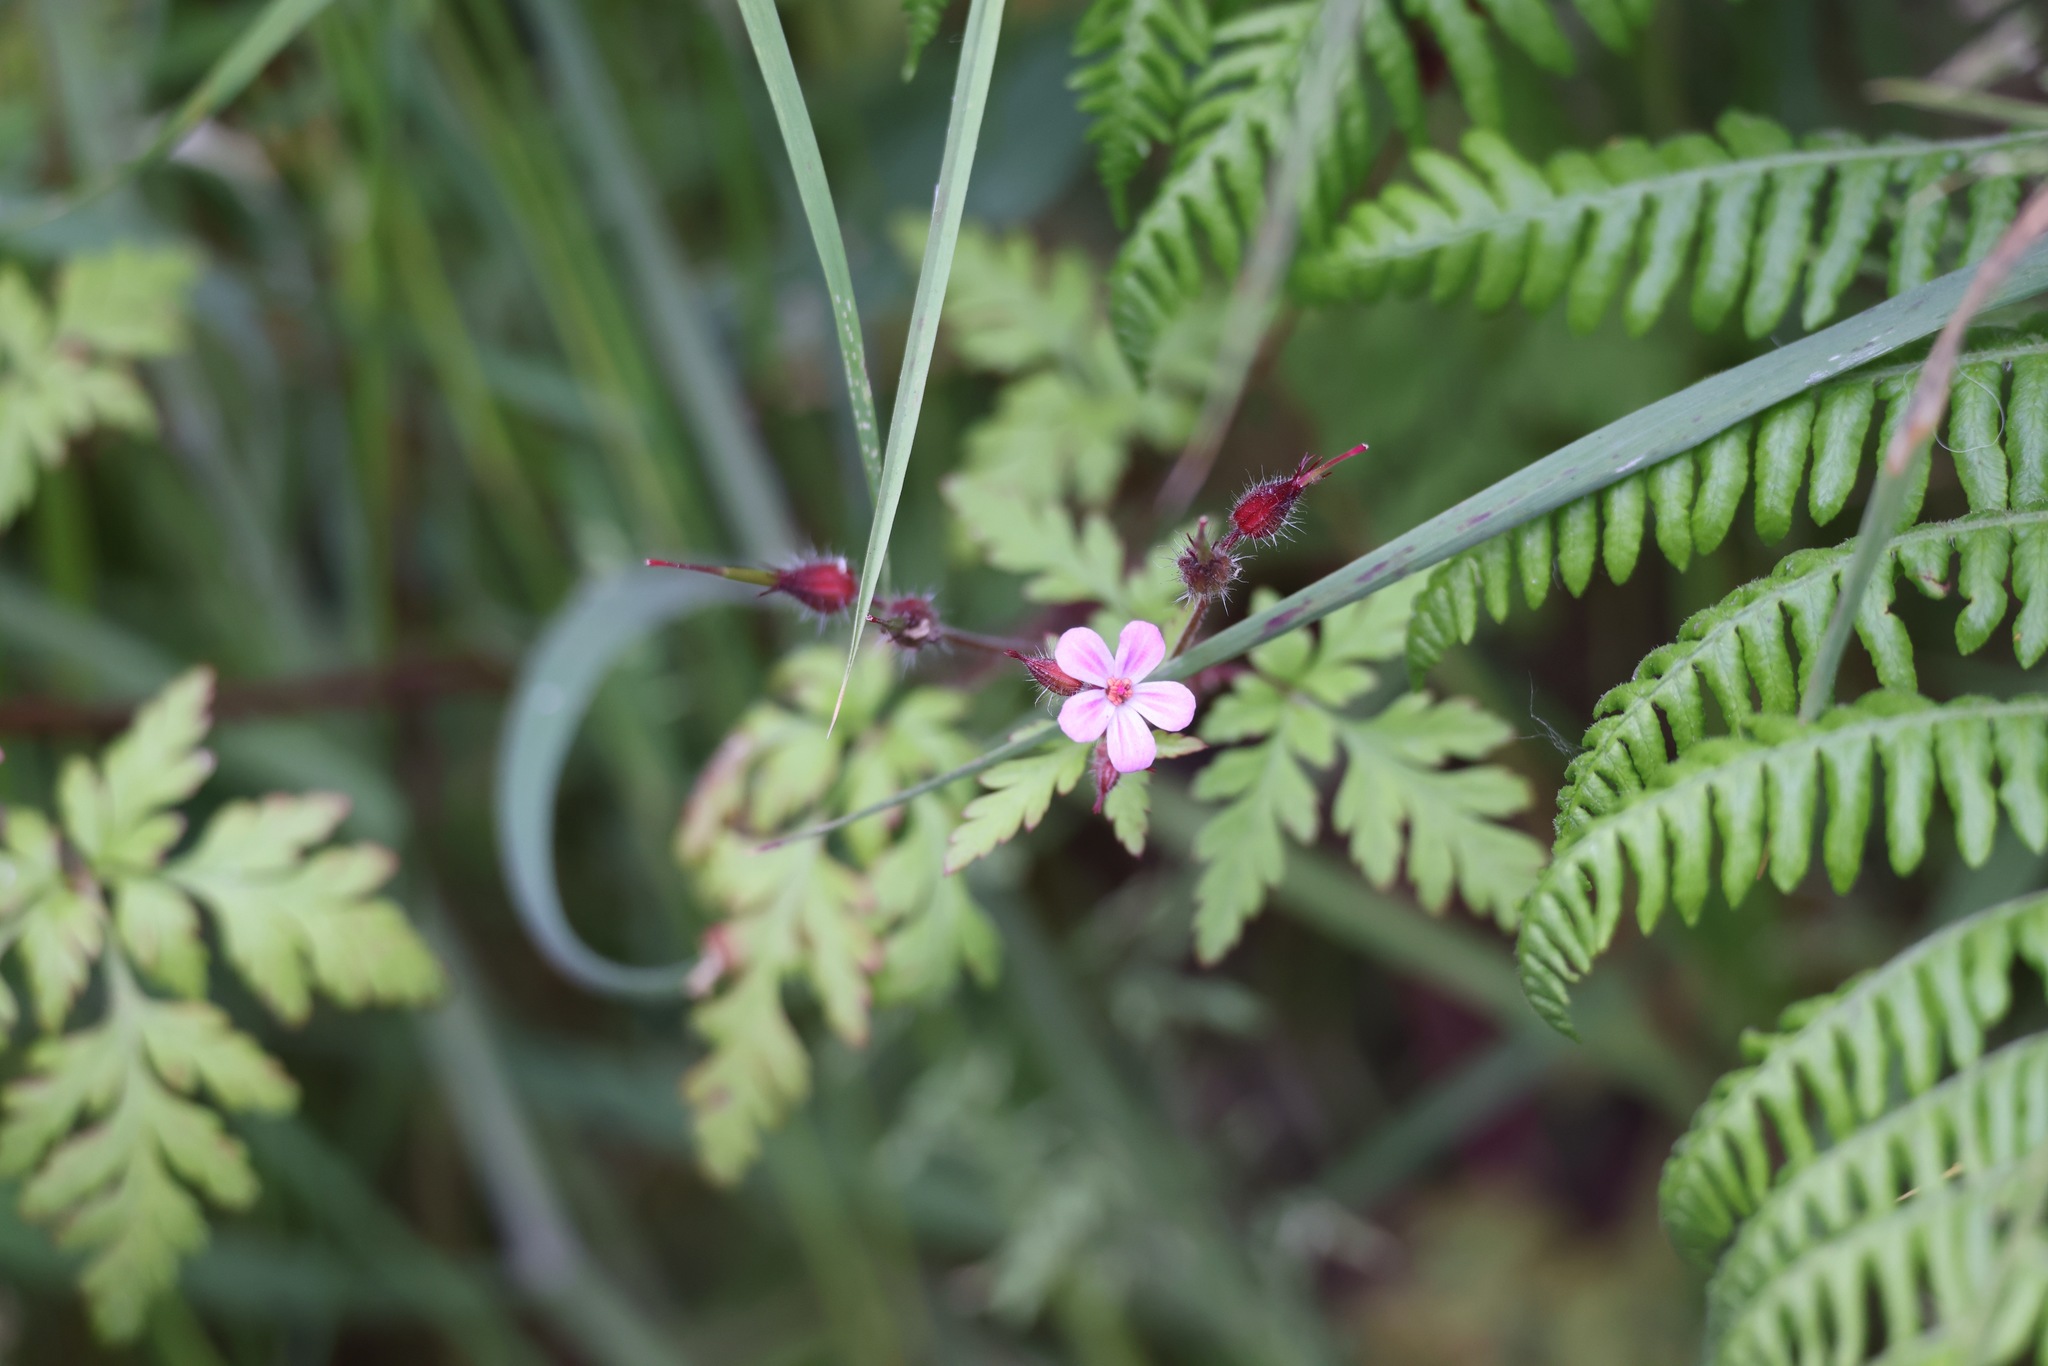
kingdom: Plantae
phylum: Tracheophyta
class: Magnoliopsida
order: Geraniales
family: Geraniaceae
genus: Geranium
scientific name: Geranium robertianum
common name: Herb-robert
